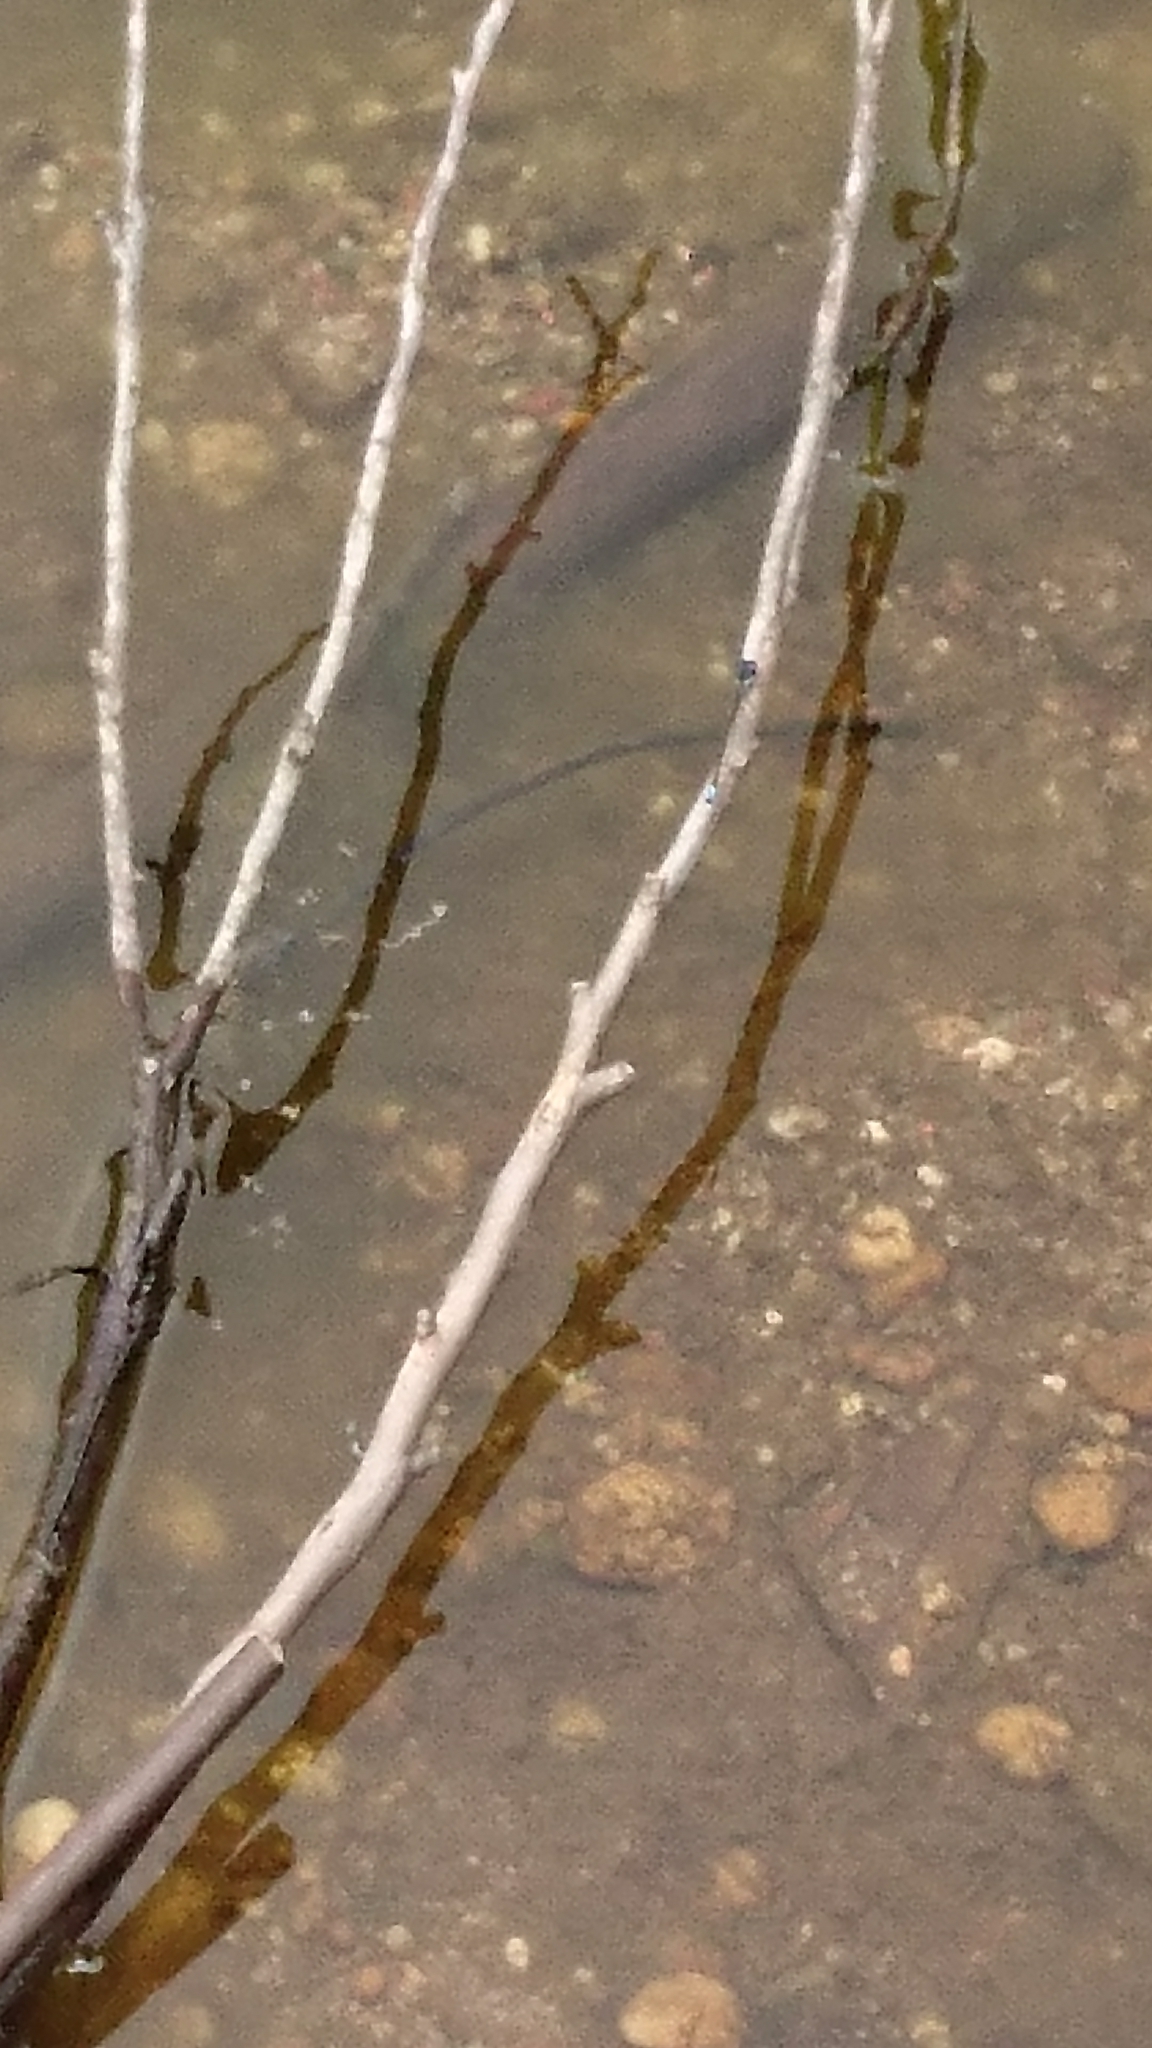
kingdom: Animalia
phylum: Arthropoda
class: Insecta
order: Odonata
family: Coenagrionidae
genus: Ischnura
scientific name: Ischnura heterosticta
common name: Common bluetail
